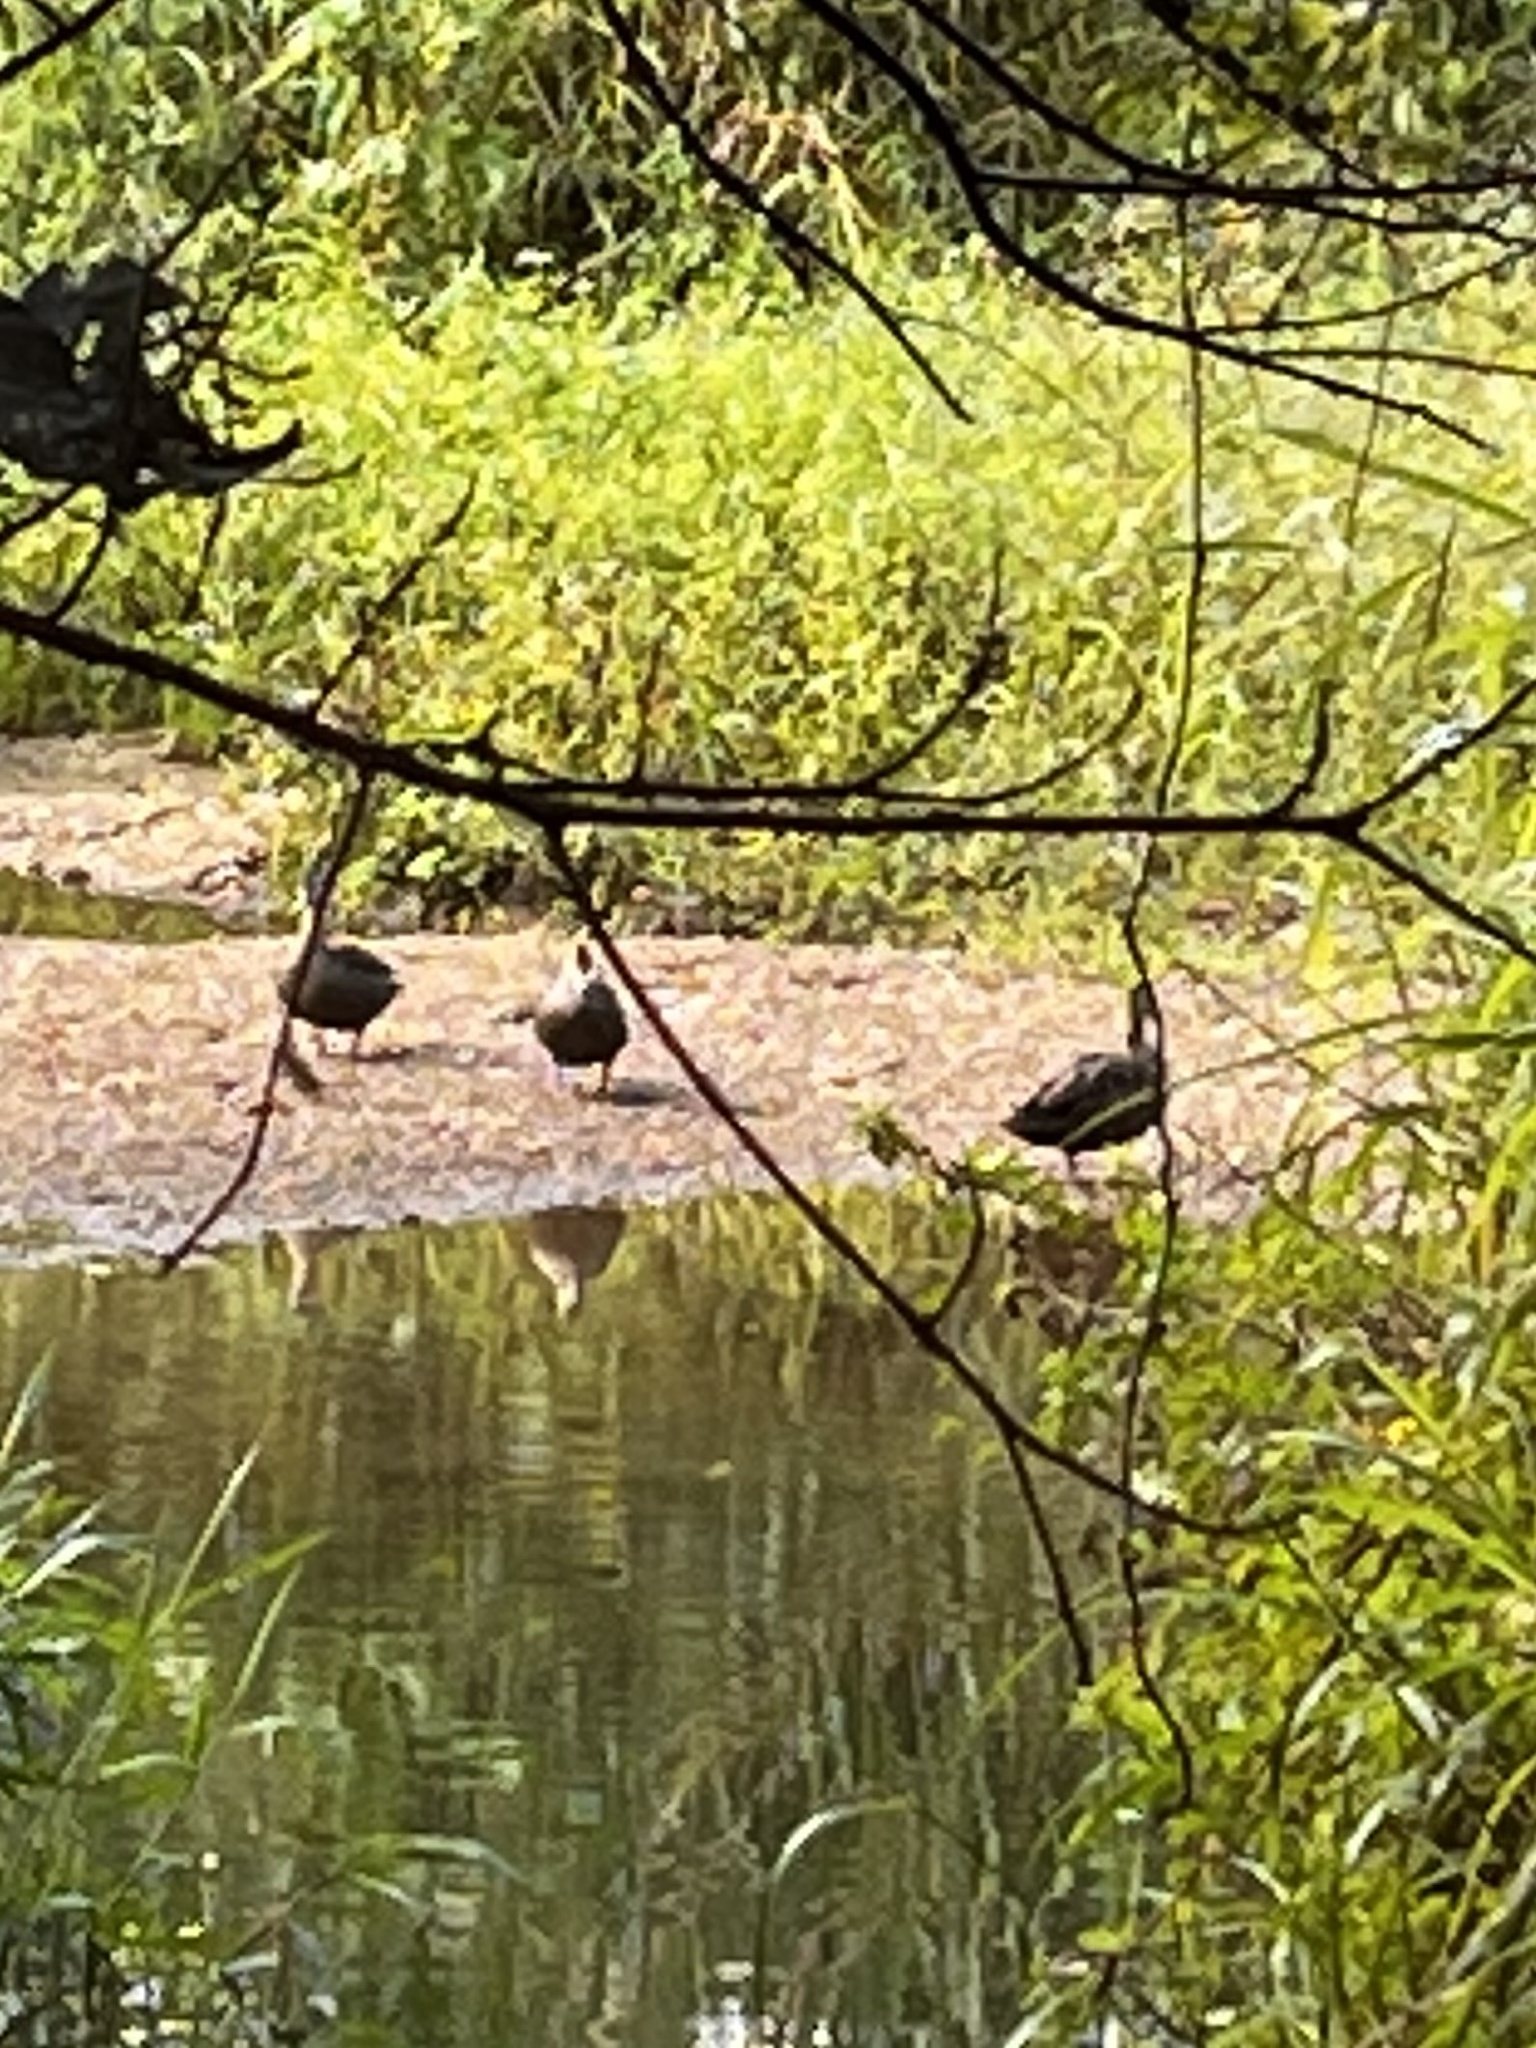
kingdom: Animalia
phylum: Chordata
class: Aves
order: Anseriformes
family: Anatidae
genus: Anas
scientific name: Anas superciliosa
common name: Pacific black duck
